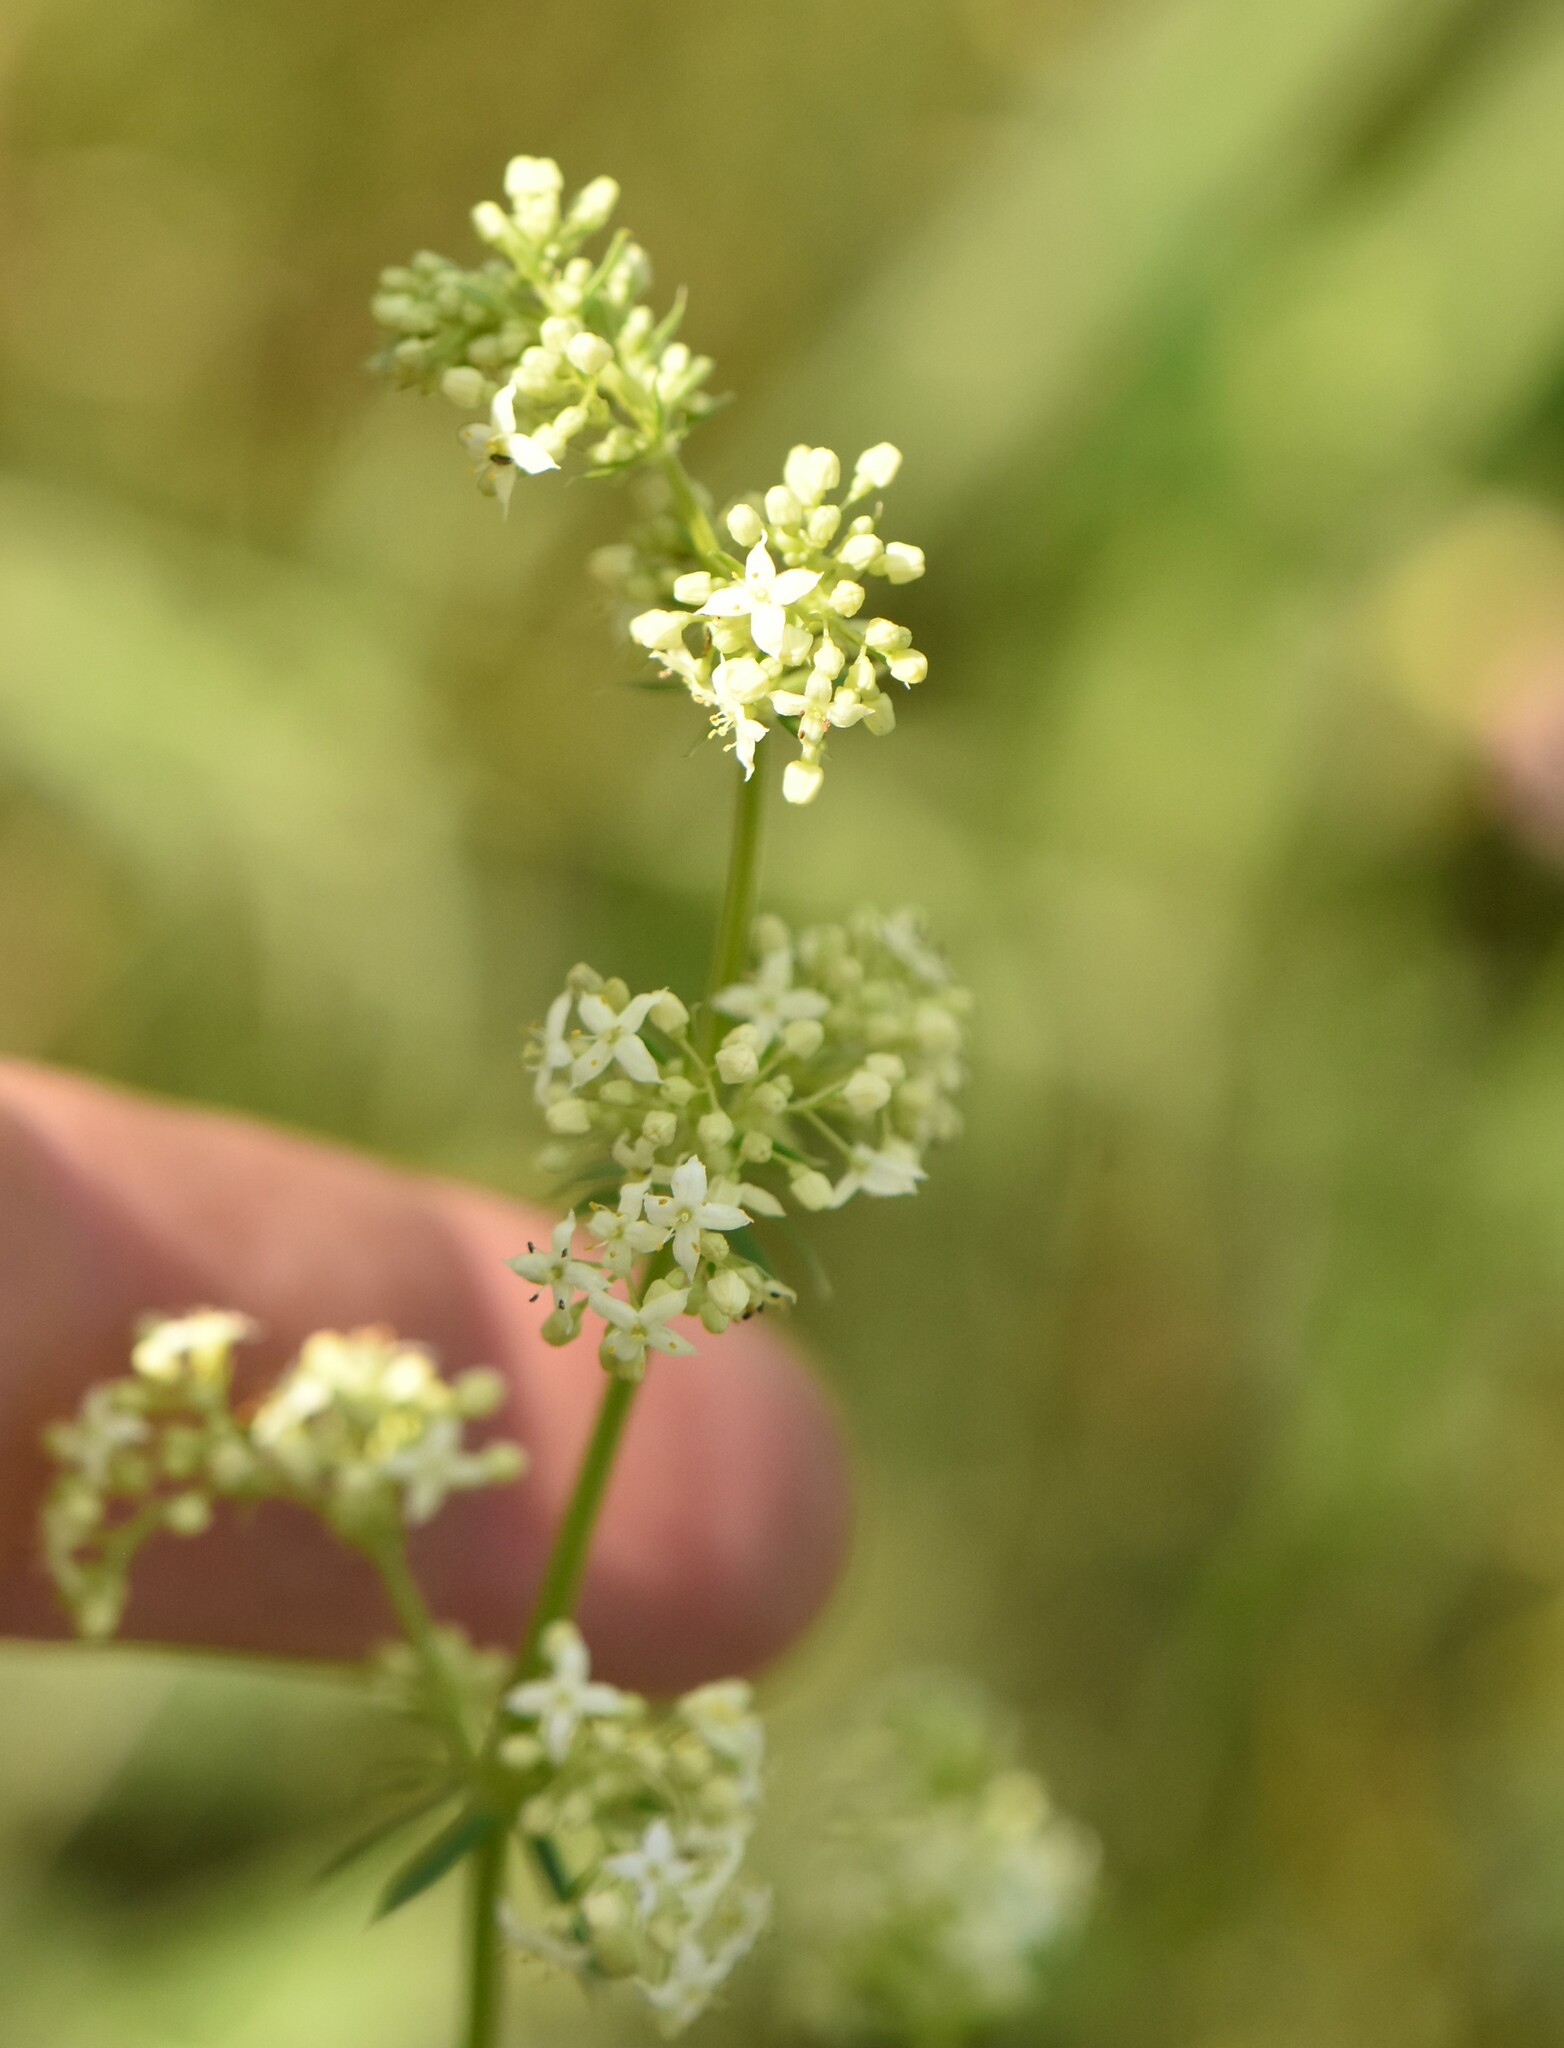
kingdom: Plantae
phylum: Tracheophyta
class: Magnoliopsida
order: Gentianales
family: Rubiaceae
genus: Galium
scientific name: Galium mollugo
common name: Hedge bedstraw
